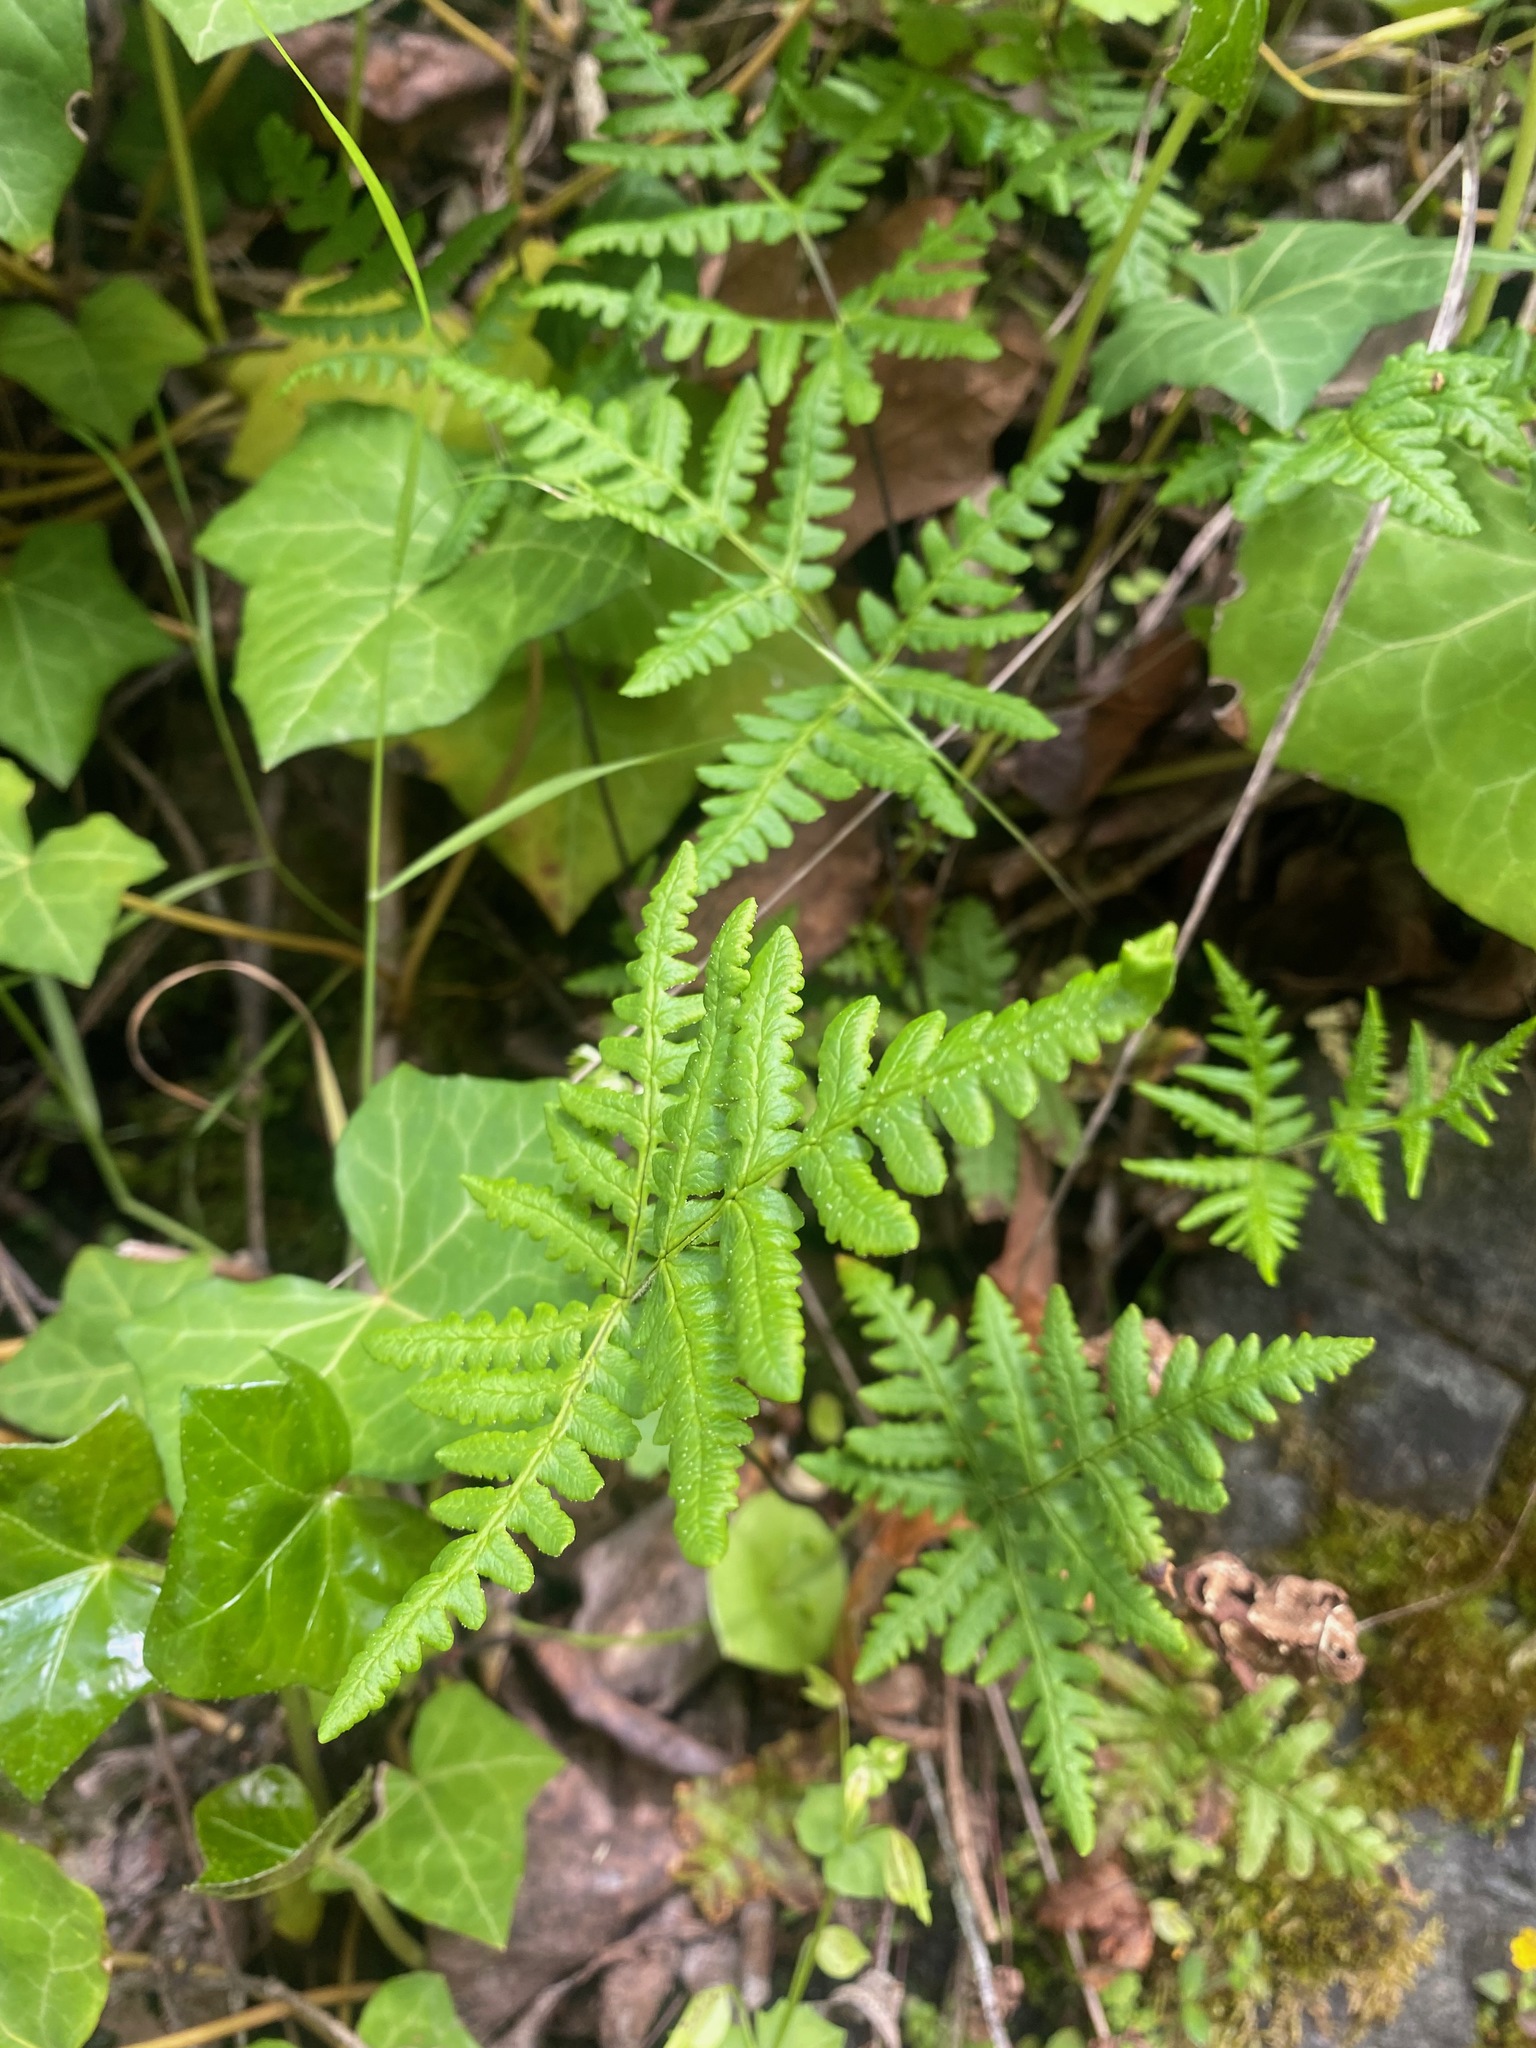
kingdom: Plantae
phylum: Tracheophyta
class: Polypodiopsida
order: Polypodiales
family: Pteridaceae
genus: Pentagramma
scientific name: Pentagramma triangularis
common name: Gold fern
